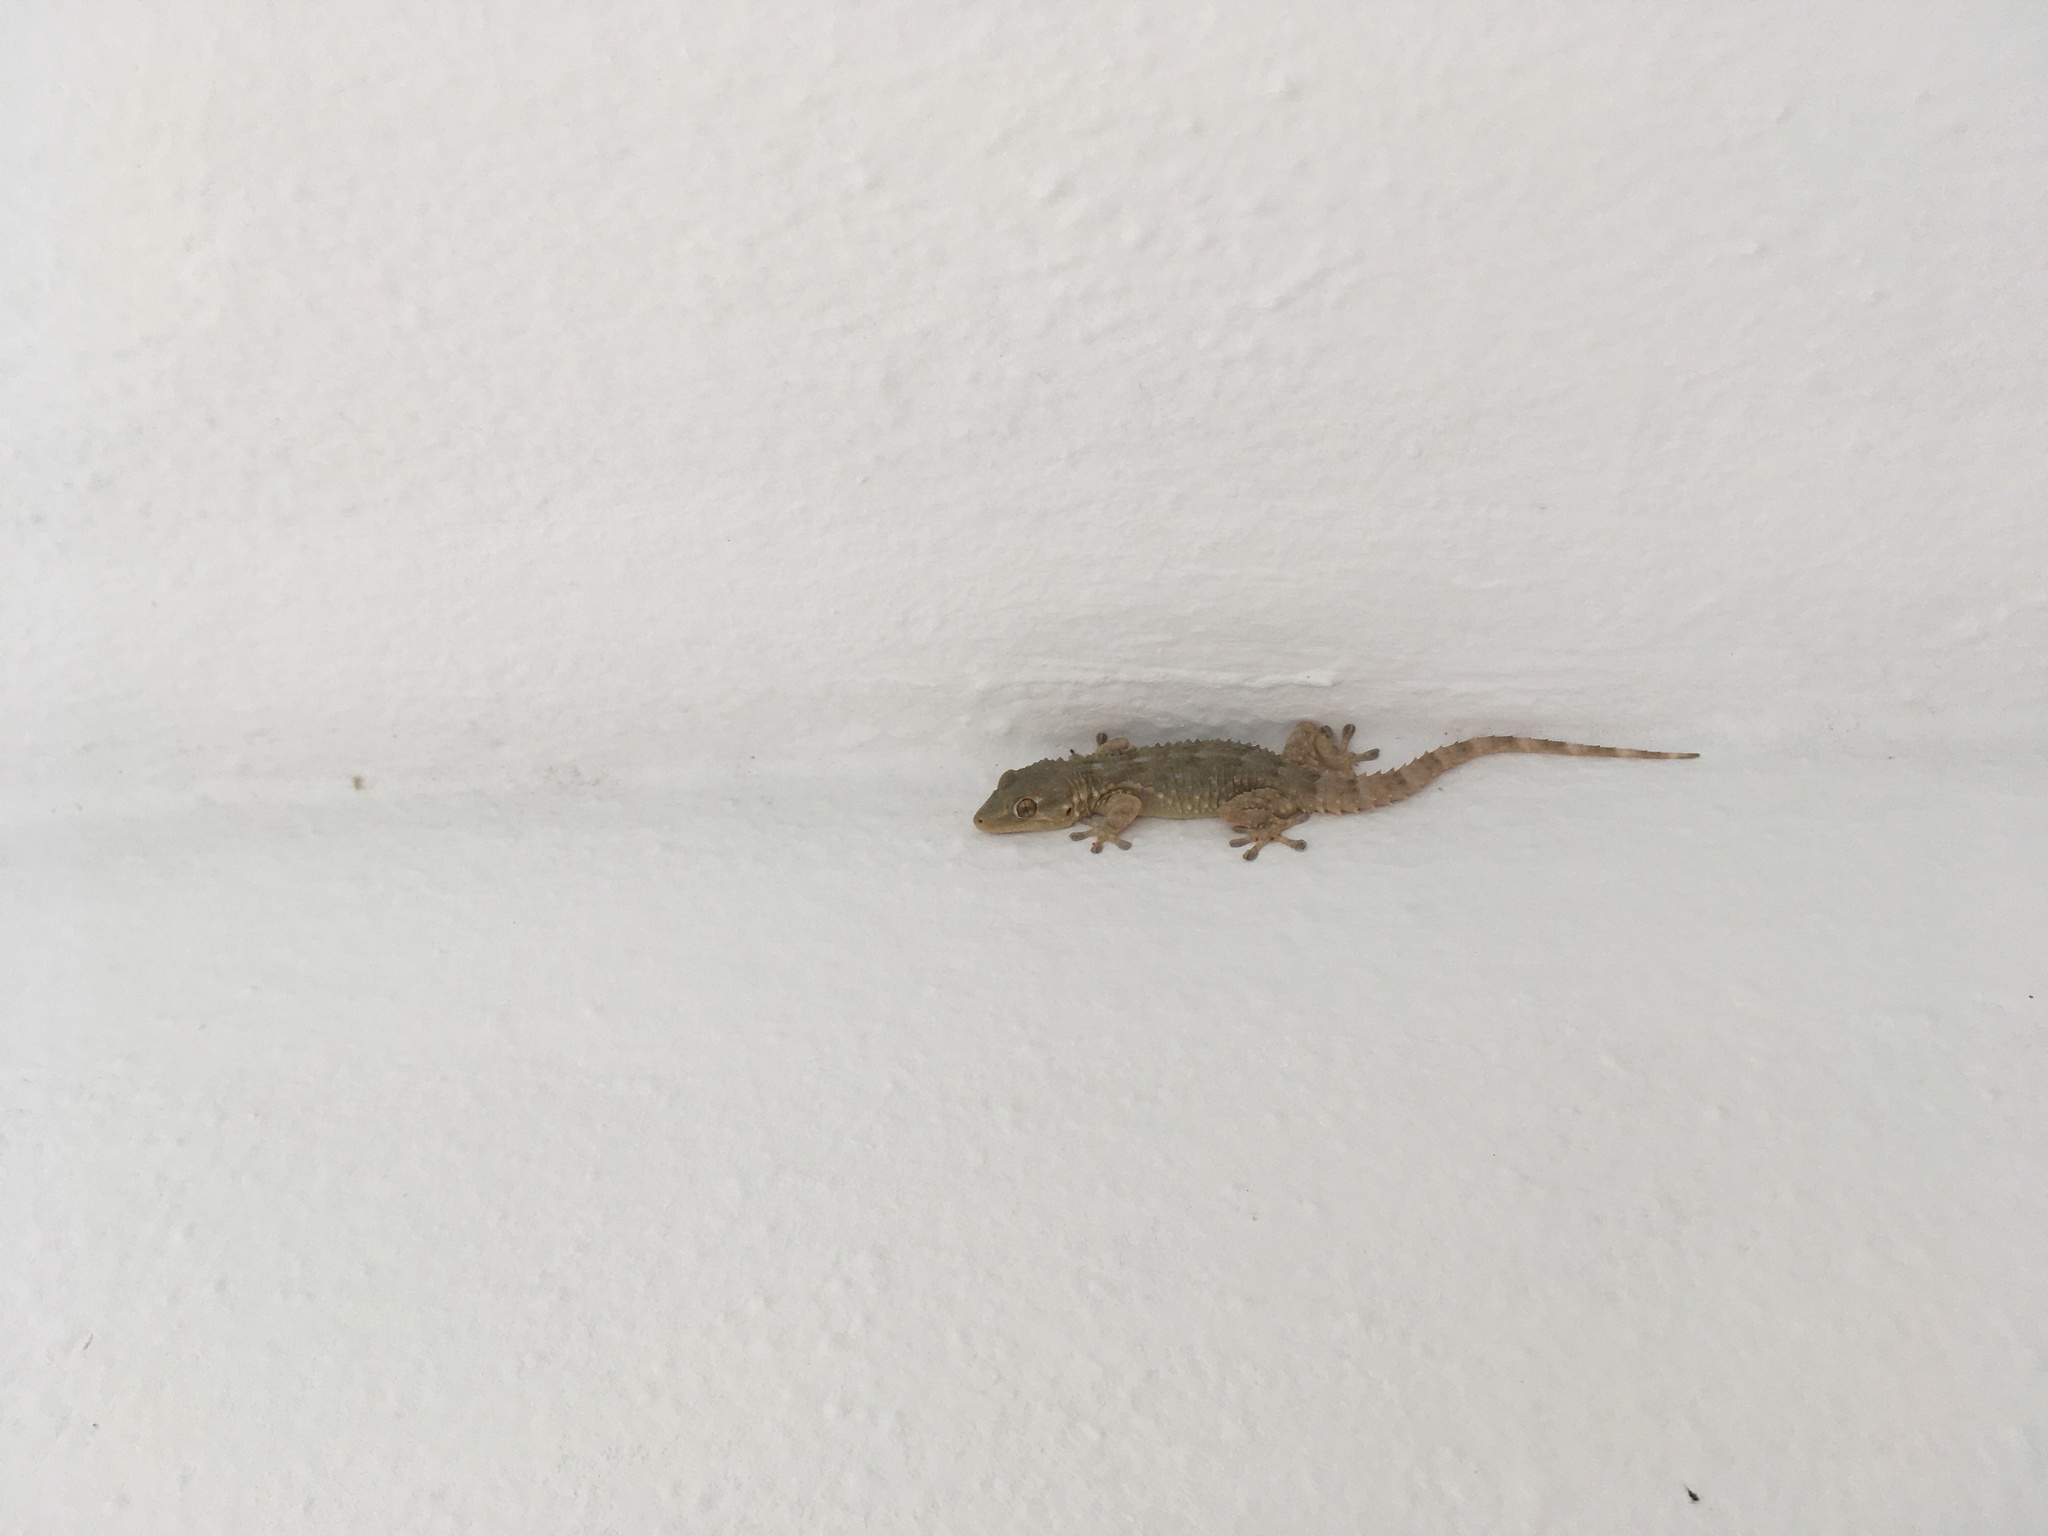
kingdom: Animalia
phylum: Chordata
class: Squamata
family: Phyllodactylidae
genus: Tarentola
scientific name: Tarentola mauritanica
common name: Moorish gecko
